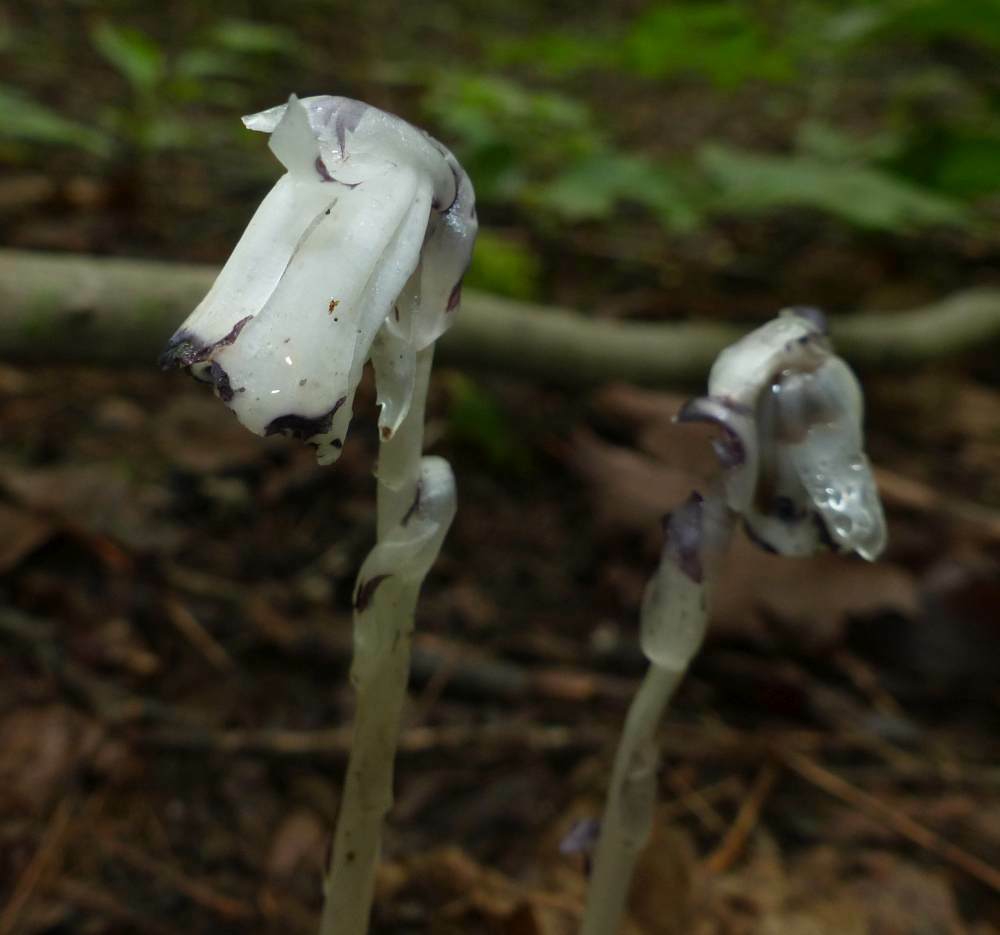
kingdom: Plantae
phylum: Tracheophyta
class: Magnoliopsida
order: Ericales
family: Ericaceae
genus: Monotropa
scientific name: Monotropa uniflora
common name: Convulsion root
